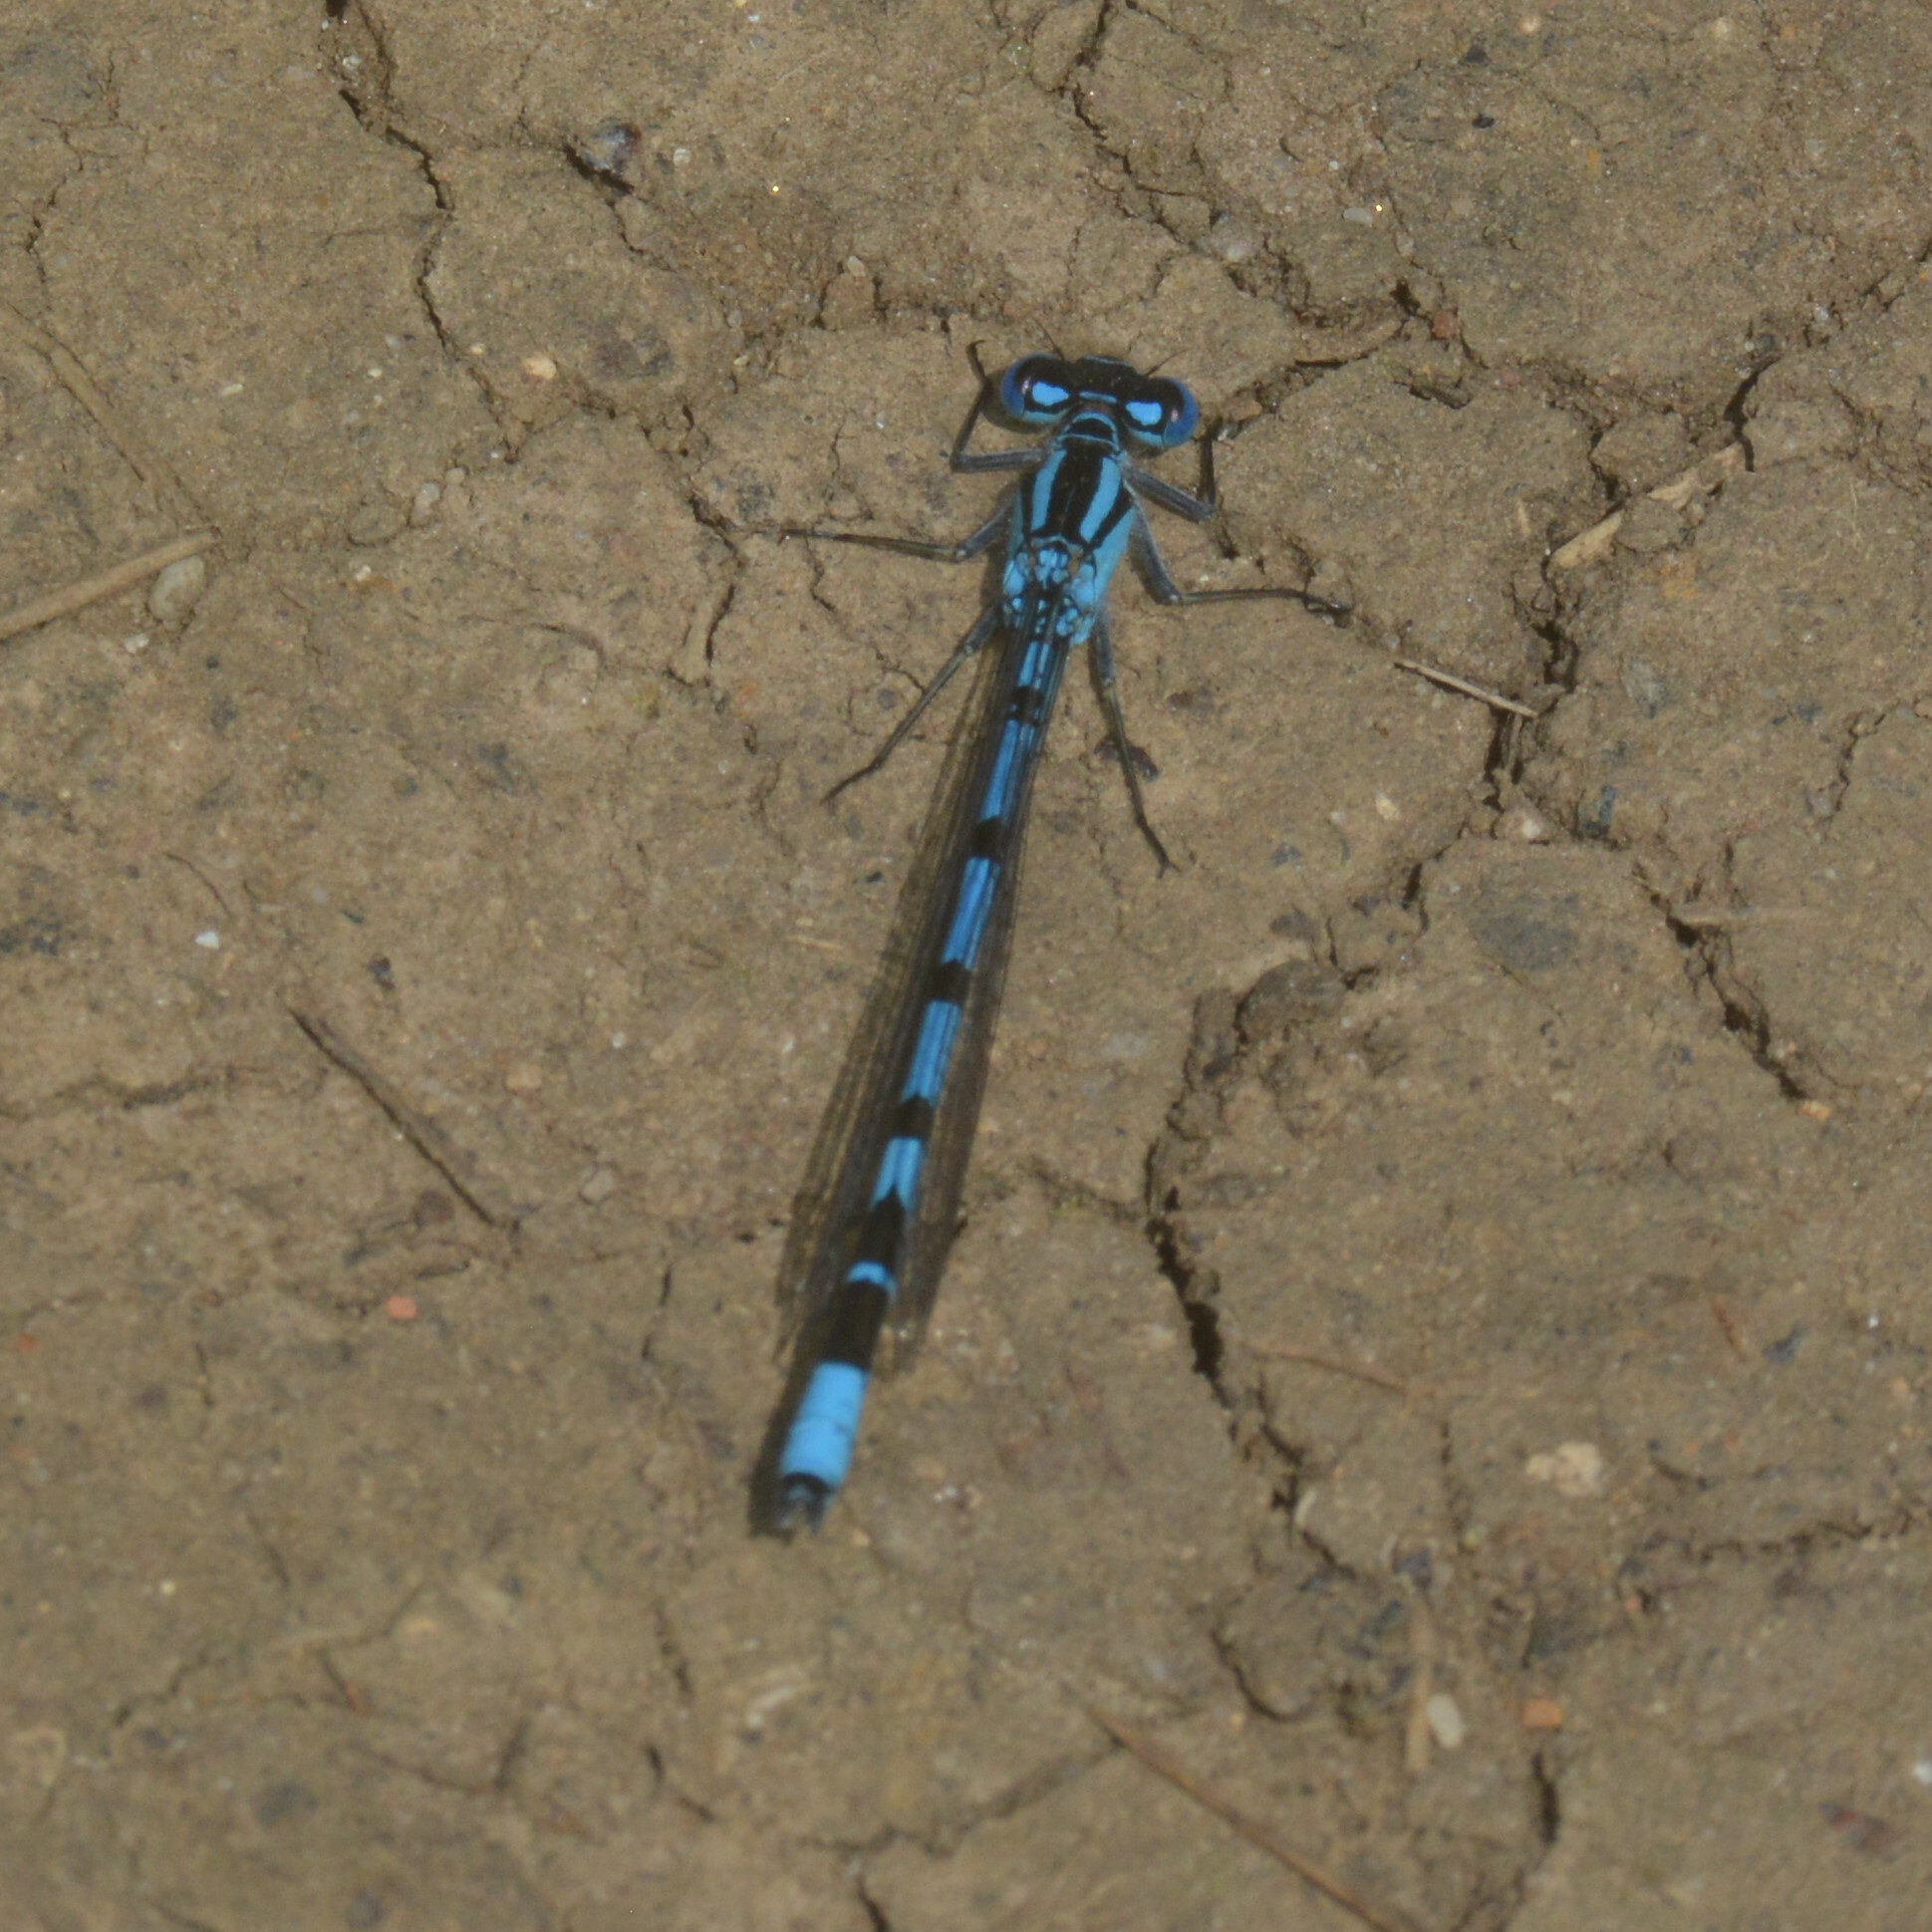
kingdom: Animalia
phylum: Arthropoda
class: Insecta
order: Odonata
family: Coenagrionidae
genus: Enallagma
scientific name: Enallagma cyathigerum
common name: Common blue damselfly
